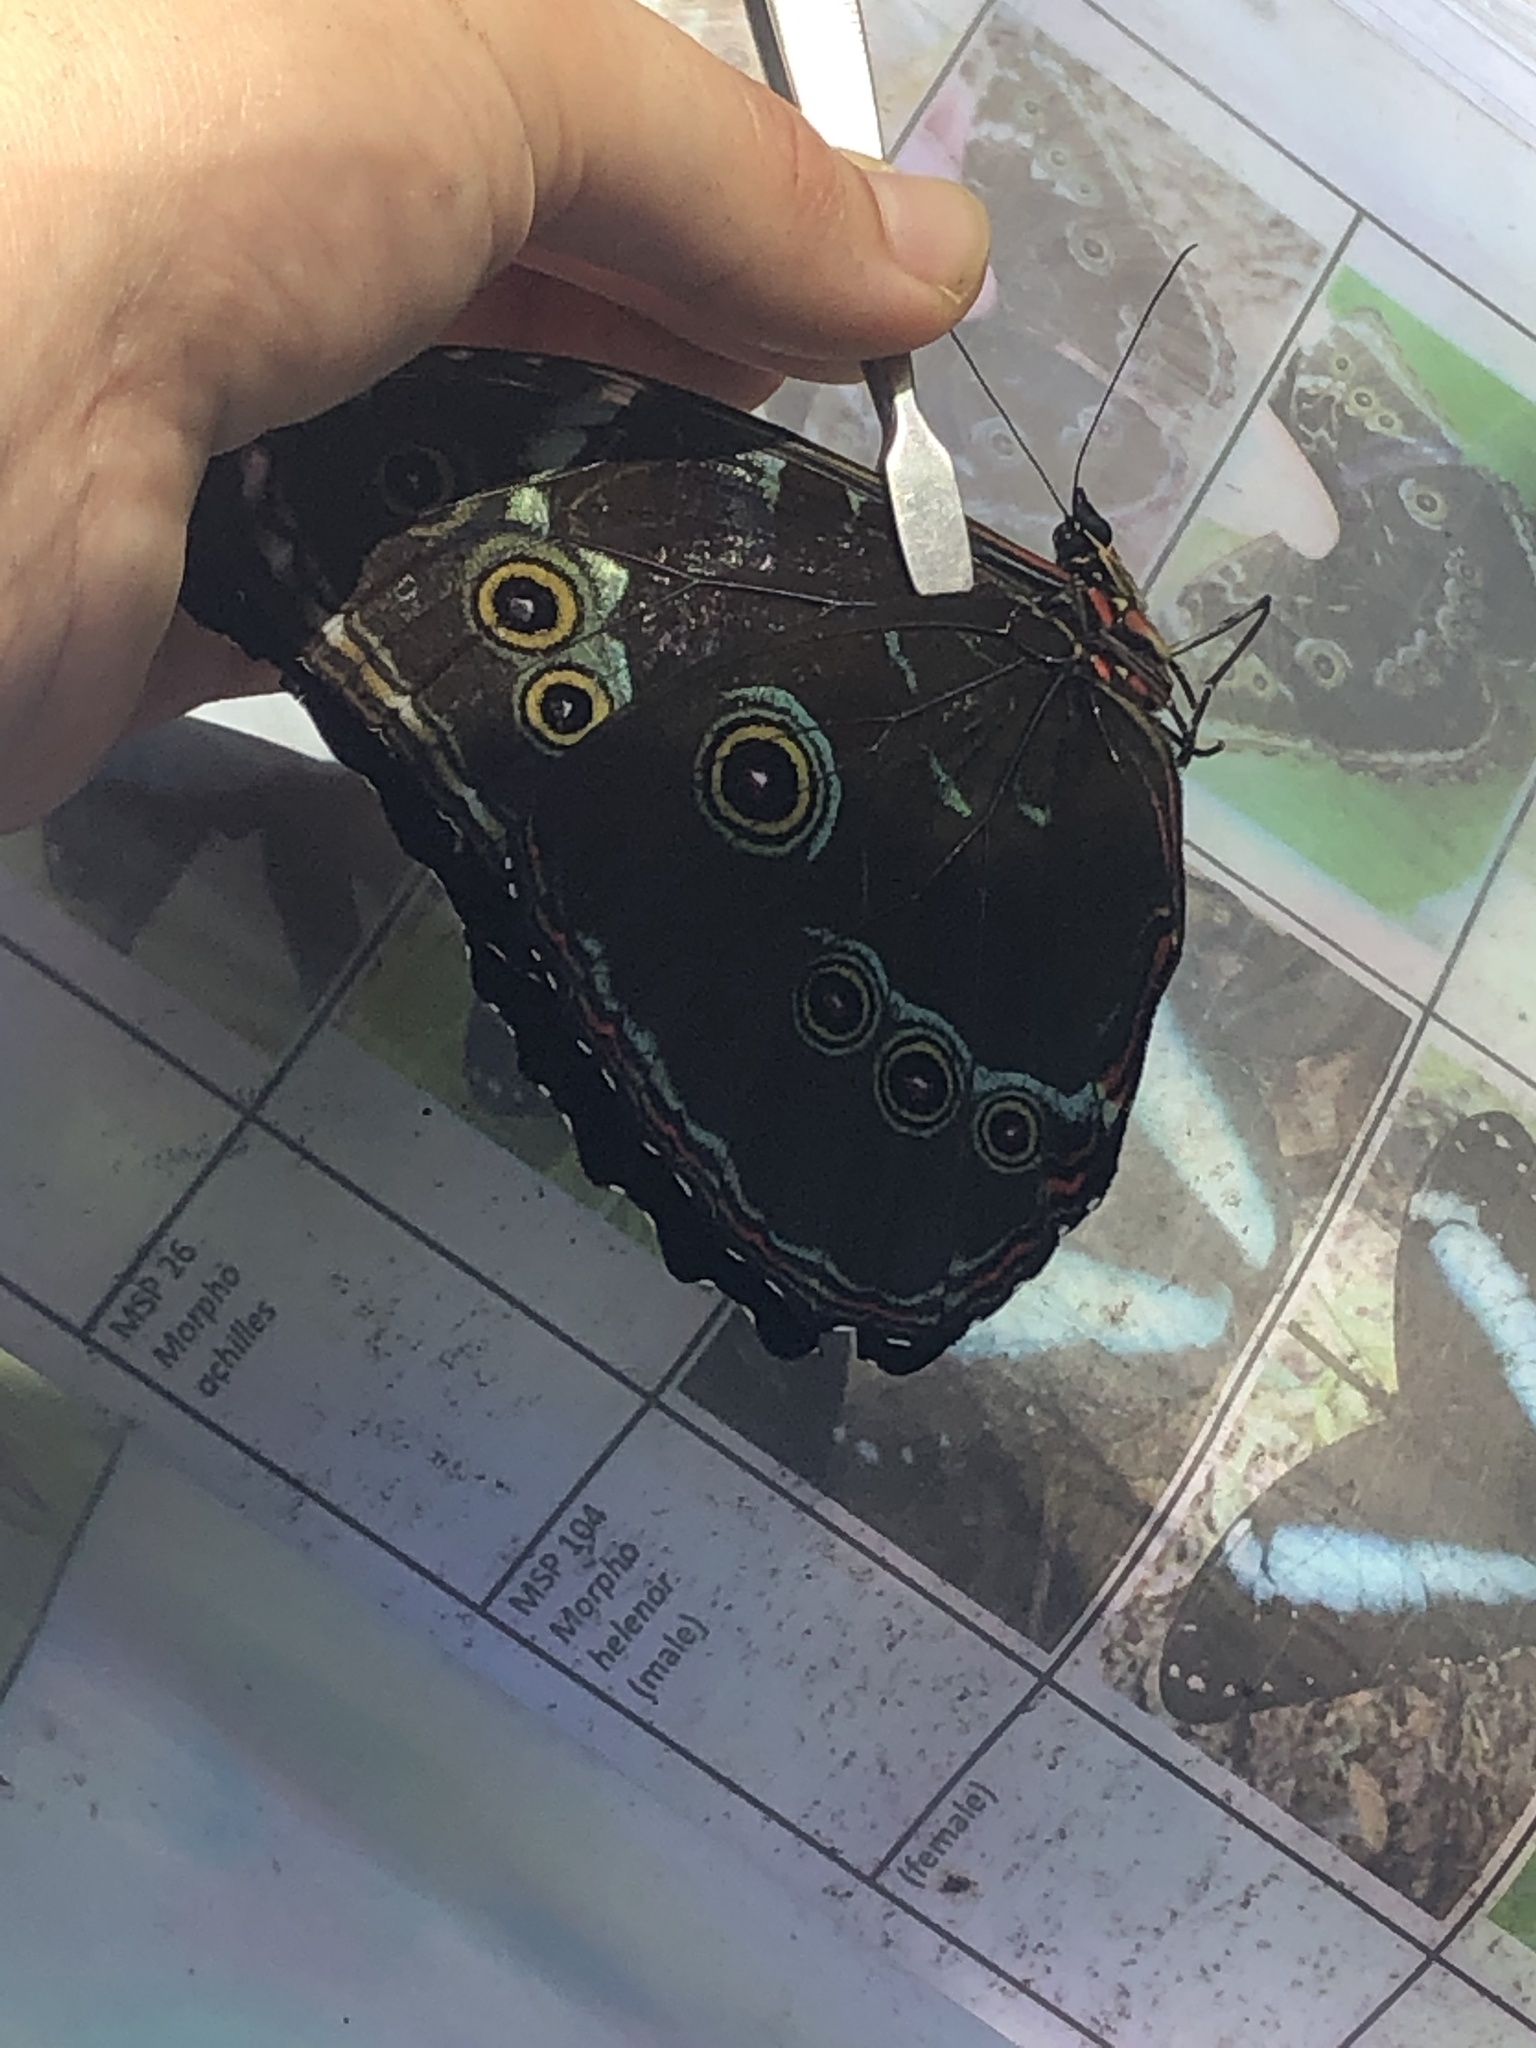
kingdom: Animalia
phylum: Arthropoda
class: Insecta
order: Lepidoptera
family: Nymphalidae
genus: Morpho
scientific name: Morpho achilles
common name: Achilles morpho
